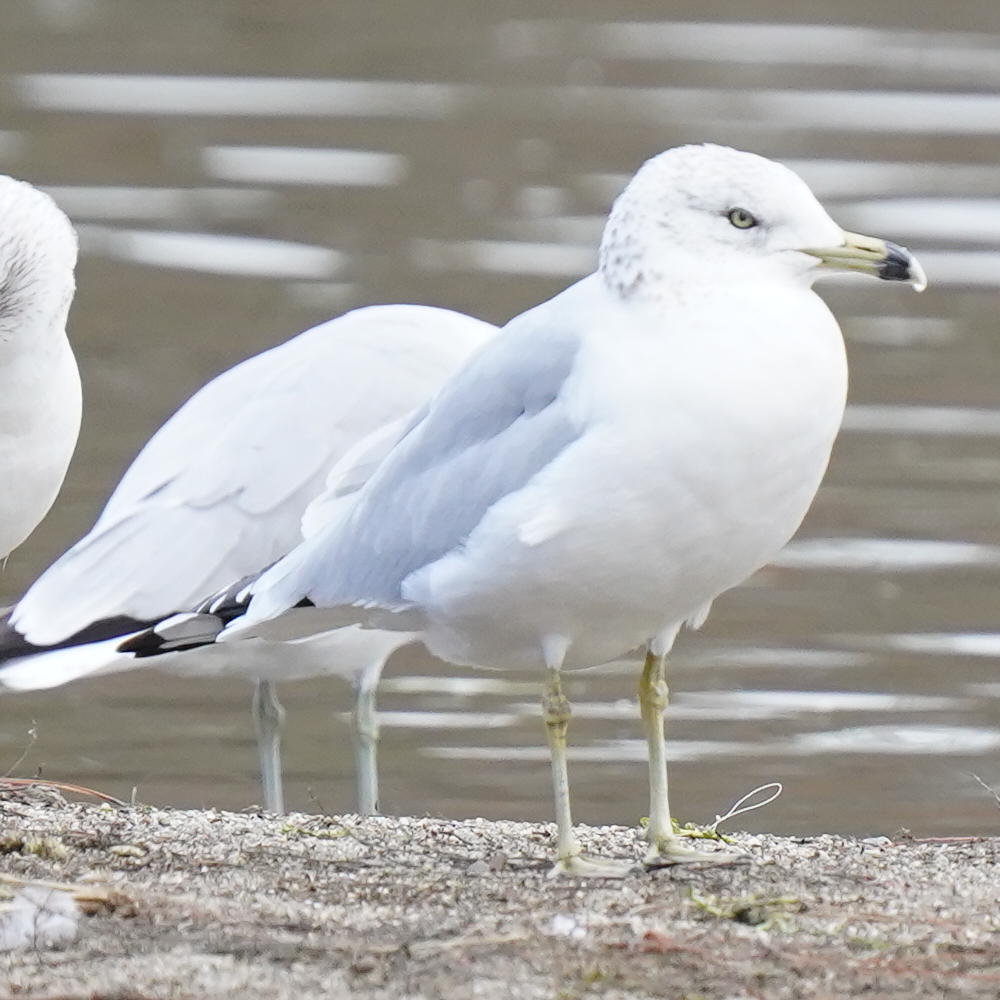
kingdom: Animalia
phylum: Chordata
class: Aves
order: Charadriiformes
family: Laridae
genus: Larus
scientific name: Larus delawarensis
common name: Ring-billed gull
